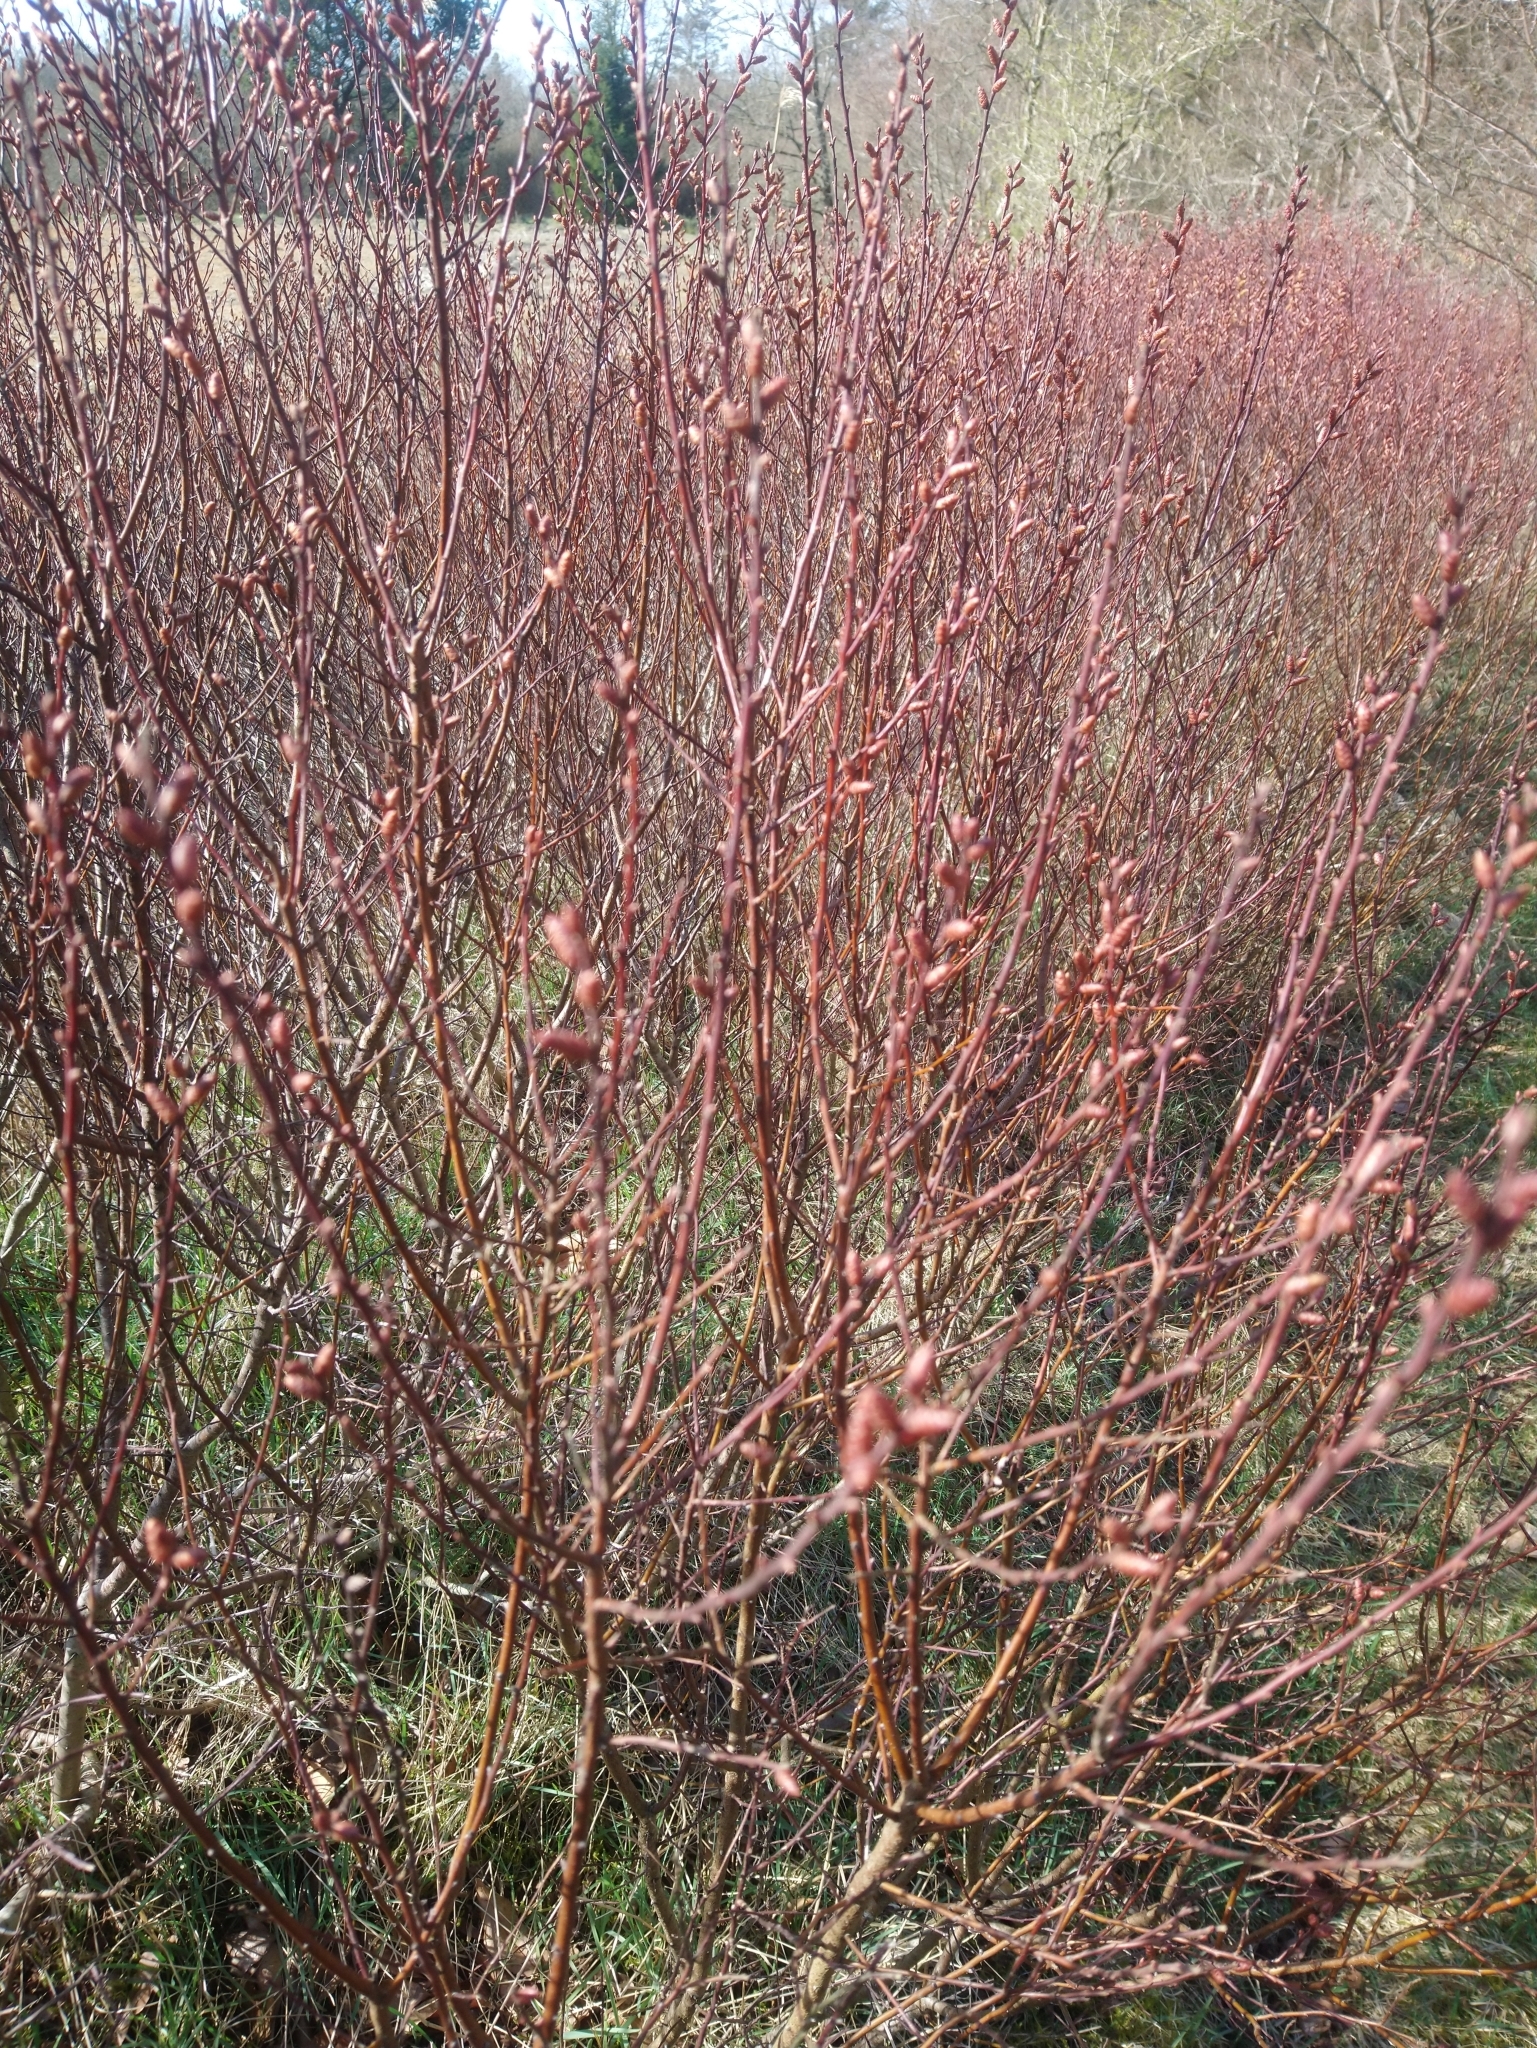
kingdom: Plantae
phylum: Tracheophyta
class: Magnoliopsida
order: Fagales
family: Myricaceae
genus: Myrica
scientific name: Myrica gale
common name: Sweet gale
